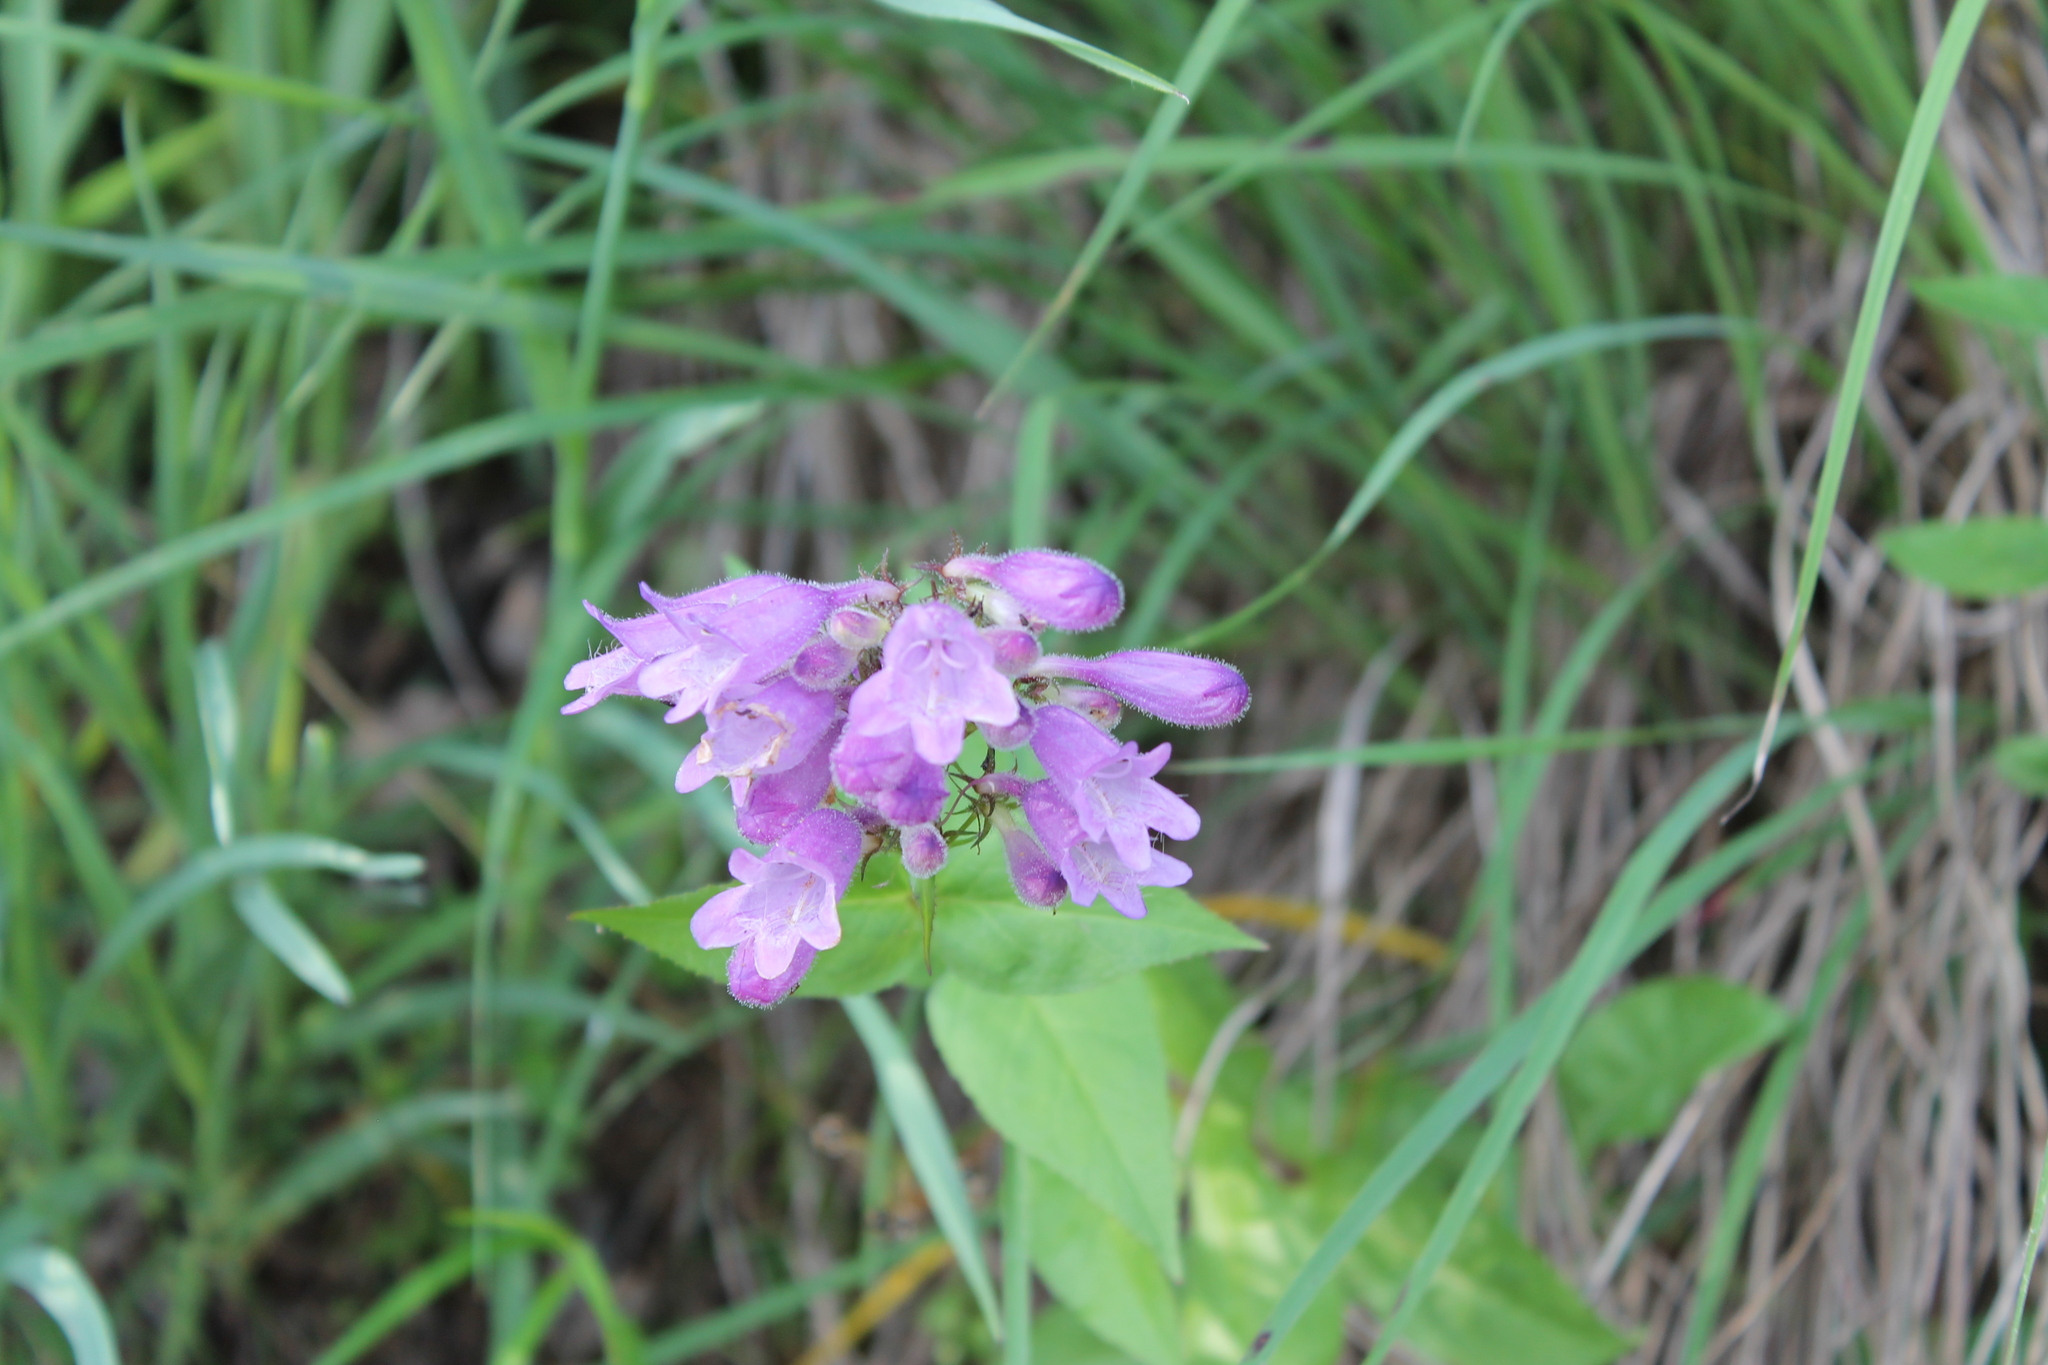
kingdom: Plantae
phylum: Tracheophyta
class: Magnoliopsida
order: Lamiales
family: Plantaginaceae
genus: Penstemon
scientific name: Penstemon calycosus
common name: Long-sepal beardtongue
